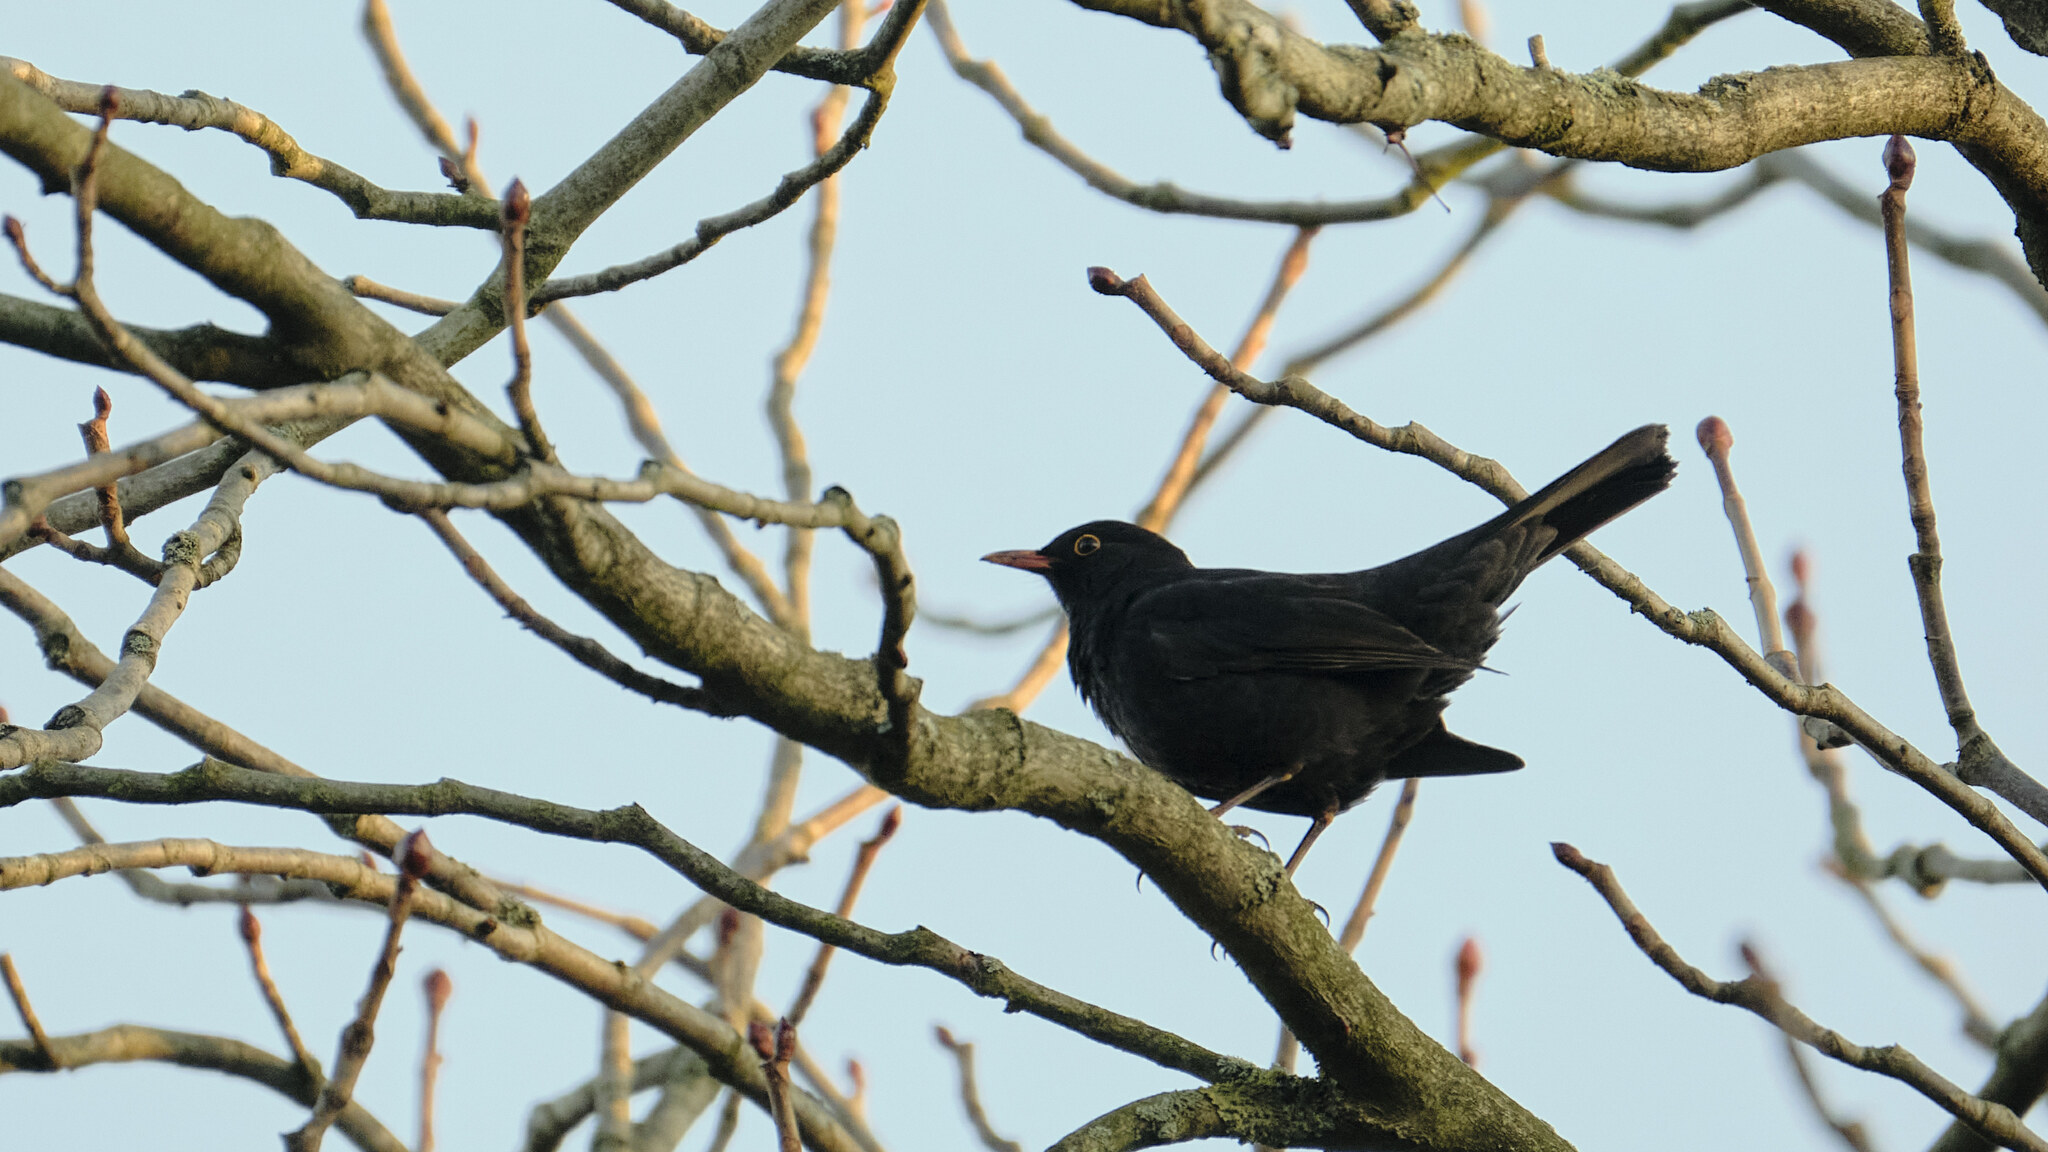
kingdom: Animalia
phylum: Chordata
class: Aves
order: Passeriformes
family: Turdidae
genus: Turdus
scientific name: Turdus merula
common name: Common blackbird
